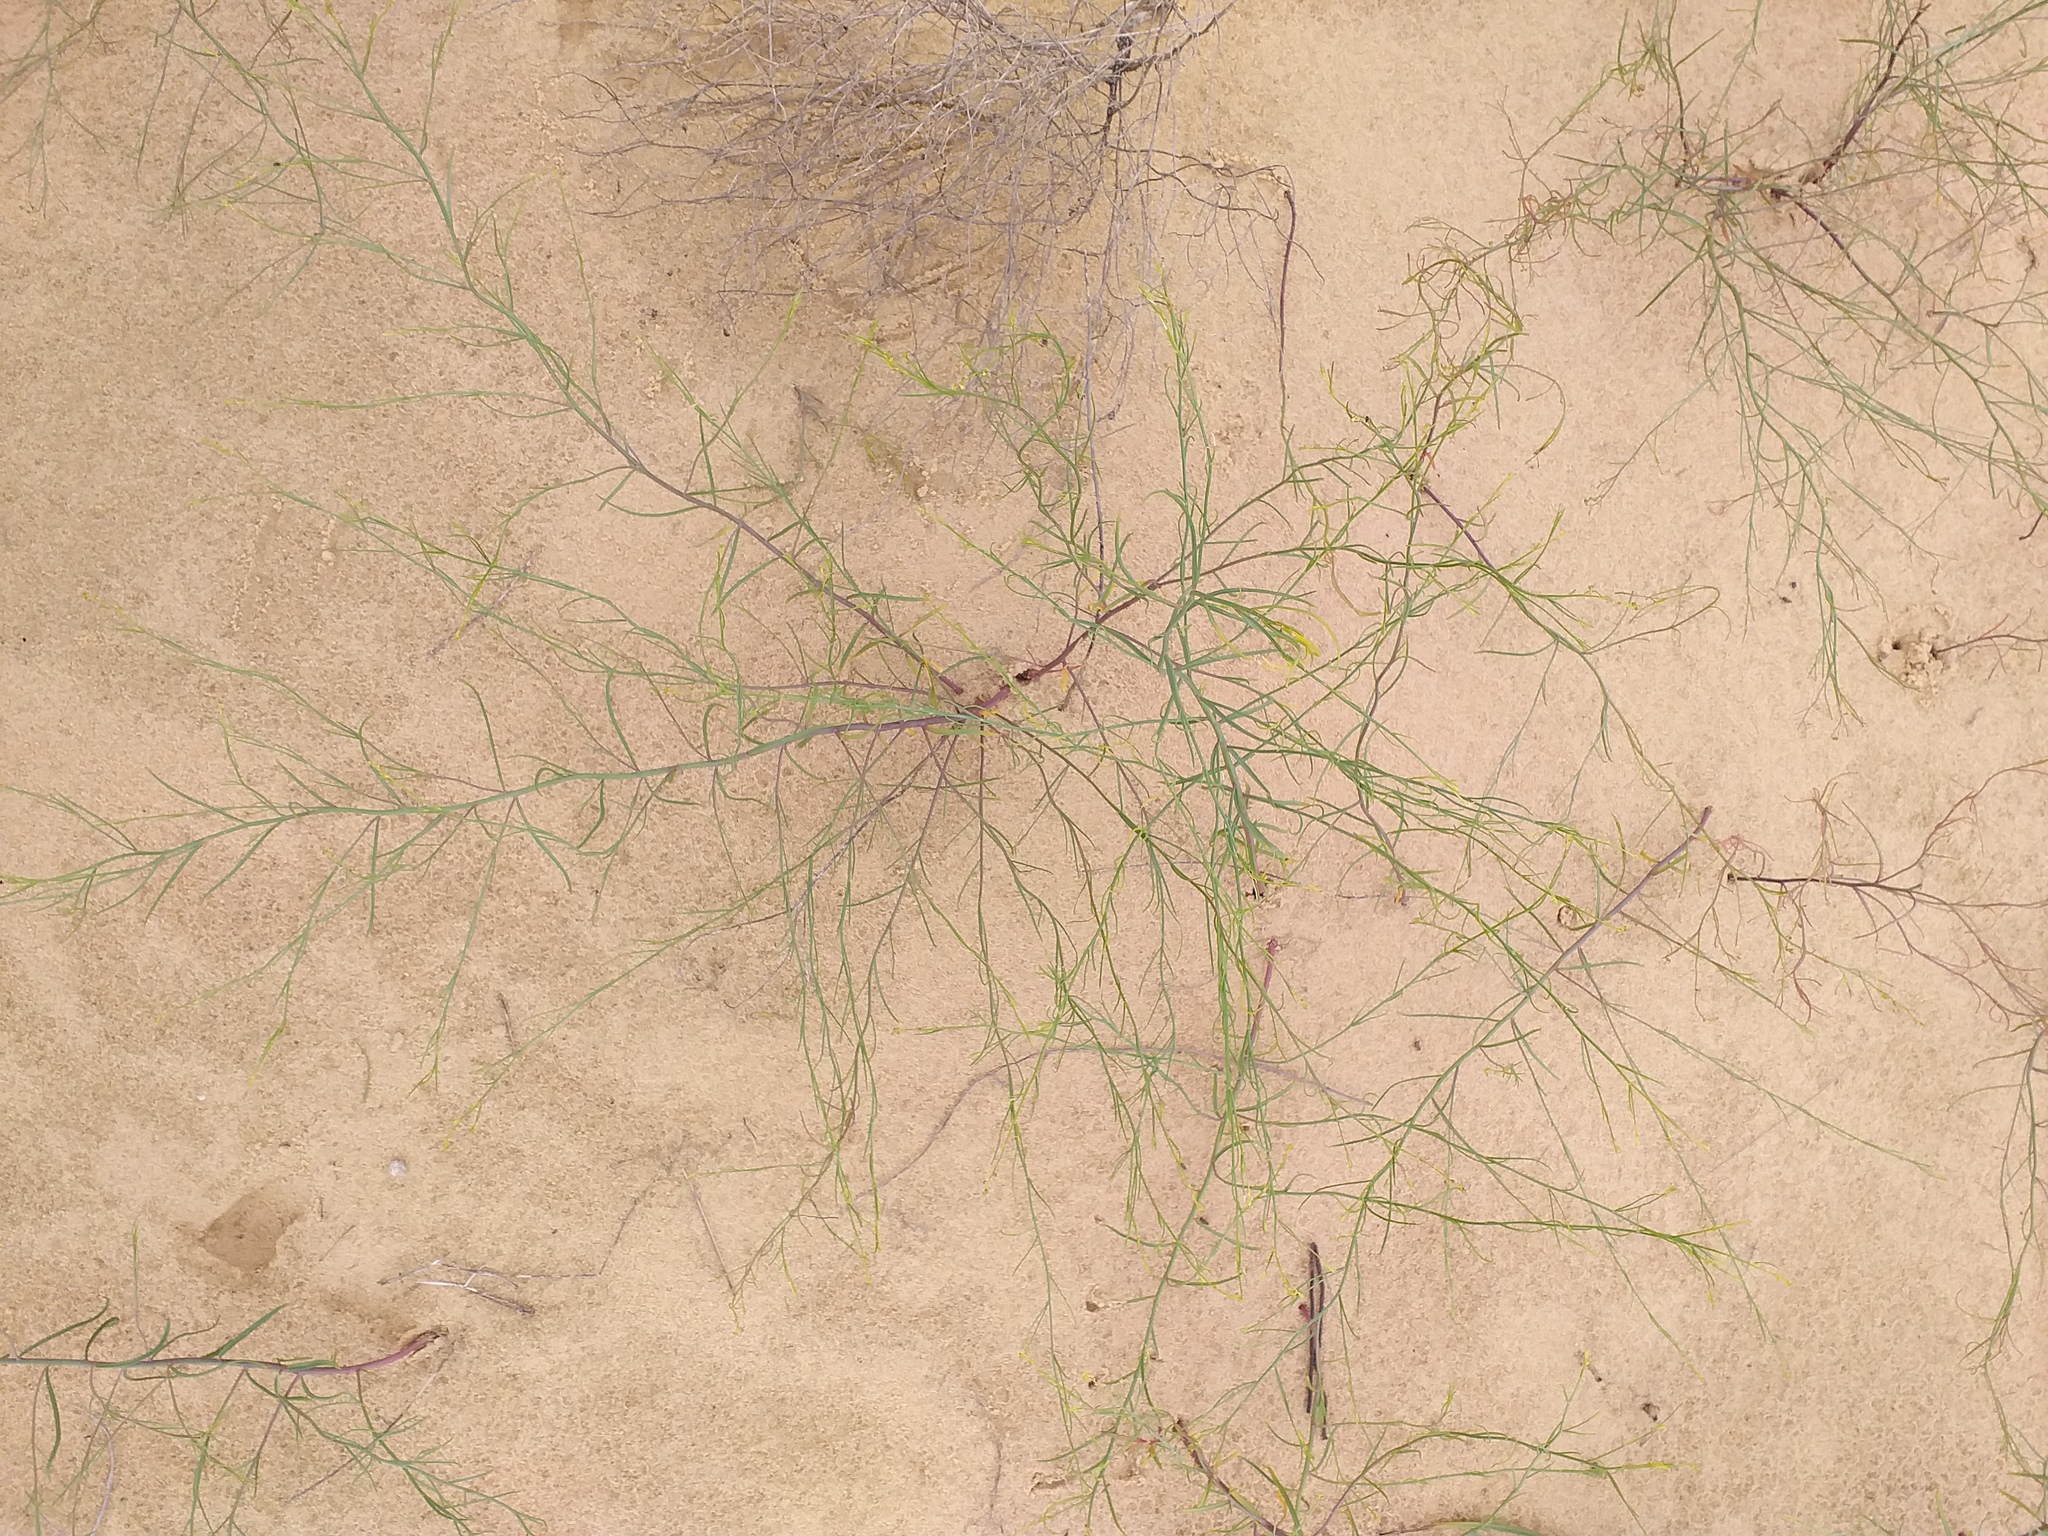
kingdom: Plantae
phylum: Tracheophyta
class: Magnoliopsida
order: Lamiales
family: Plantaginaceae
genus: Linaria
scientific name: Linaria odora
